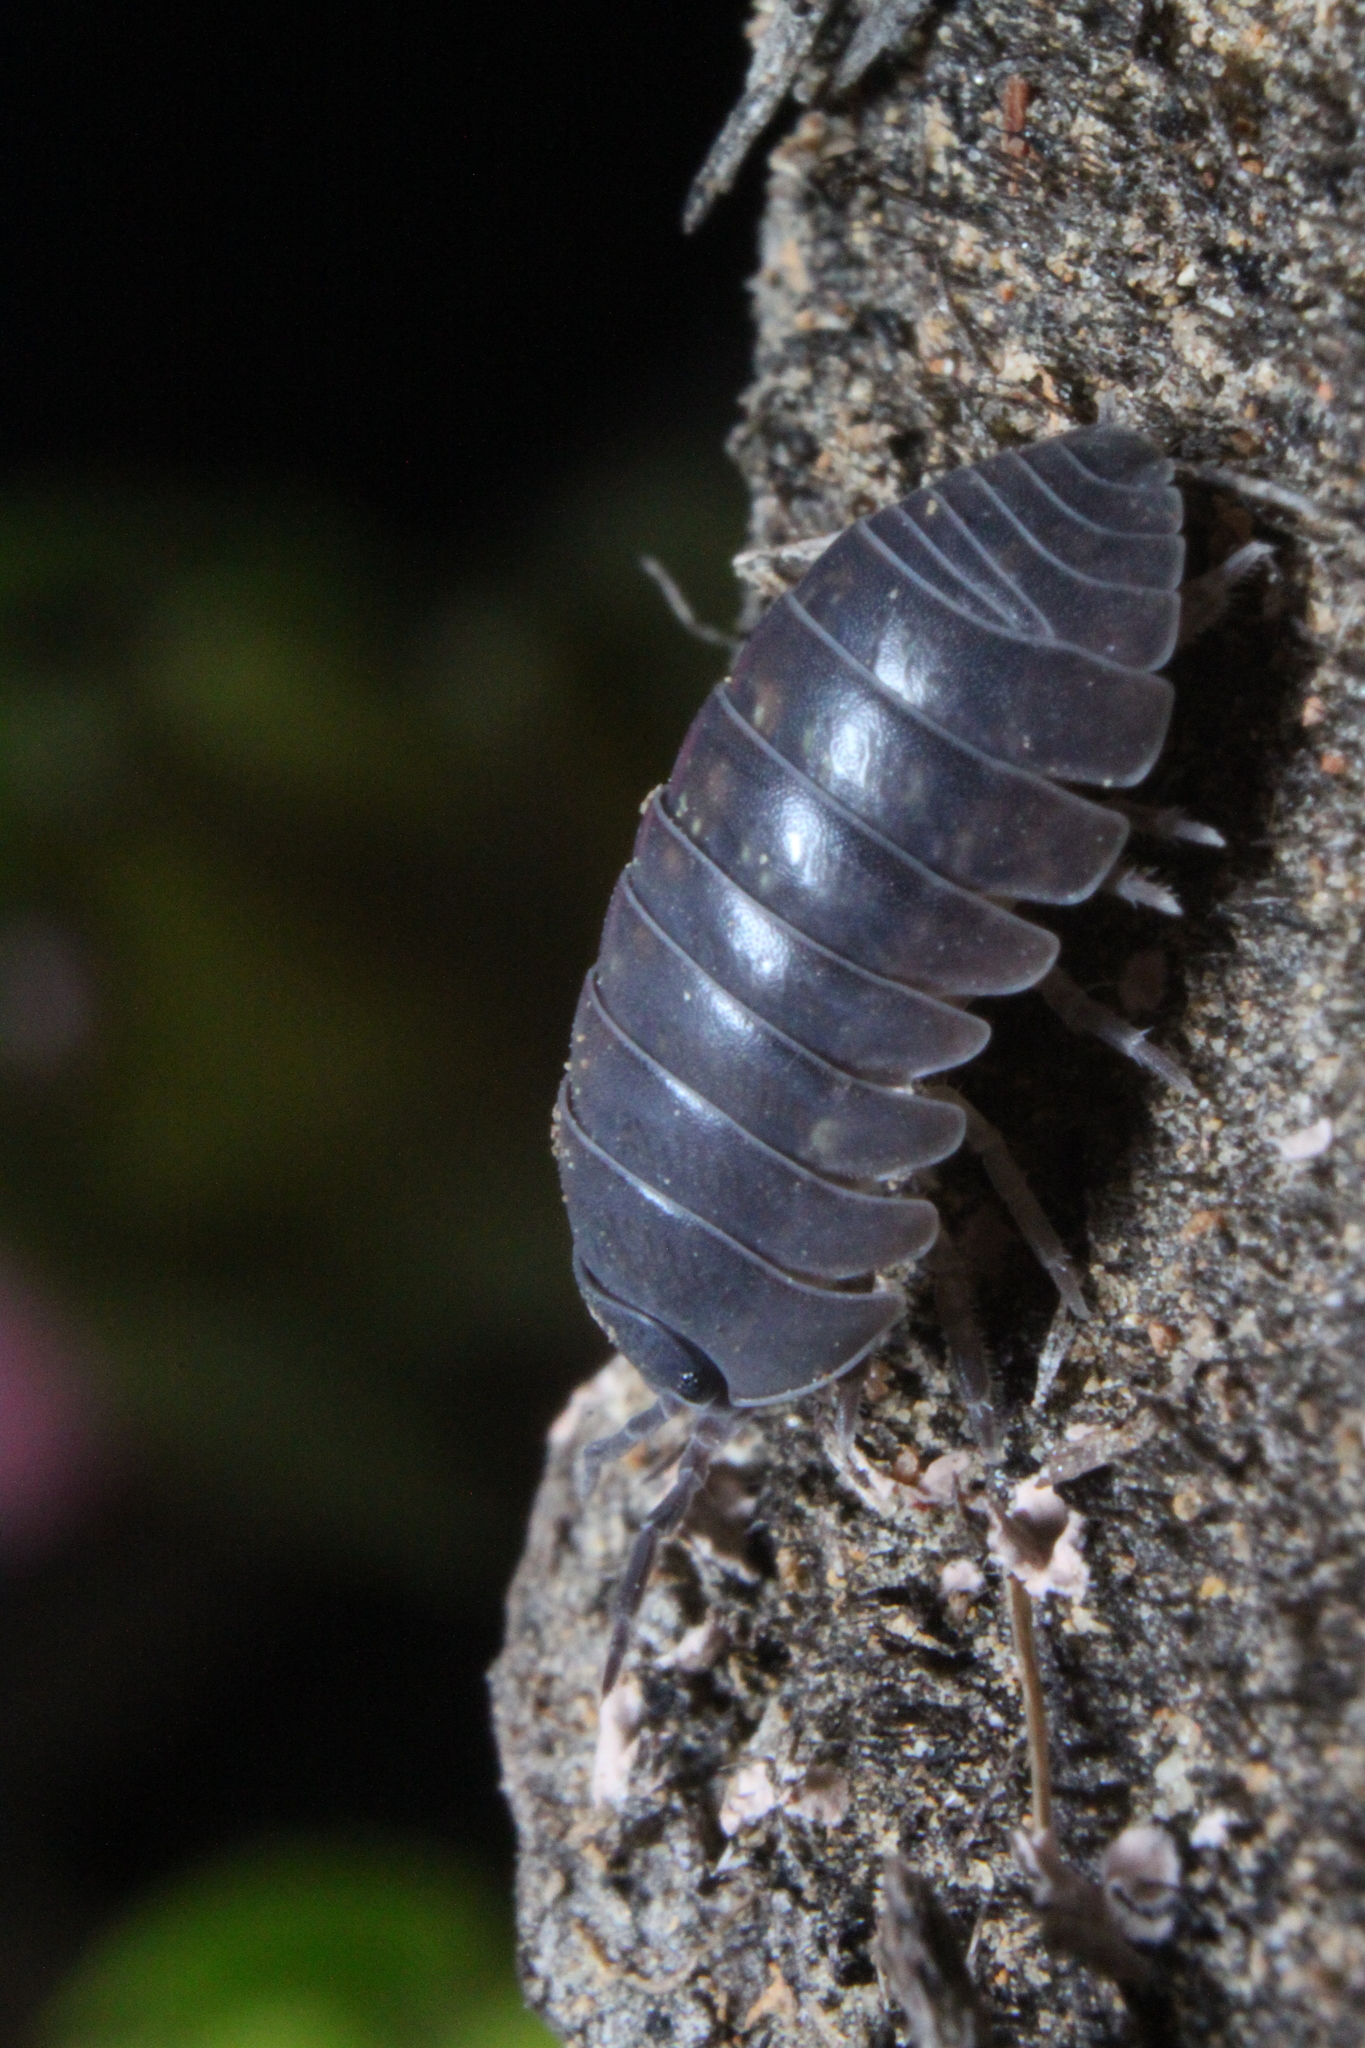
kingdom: Animalia
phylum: Arthropoda
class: Malacostraca
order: Isopoda
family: Armadillidiidae
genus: Armadillidium
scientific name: Armadillidium vulgare
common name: Common pill woodlouse
